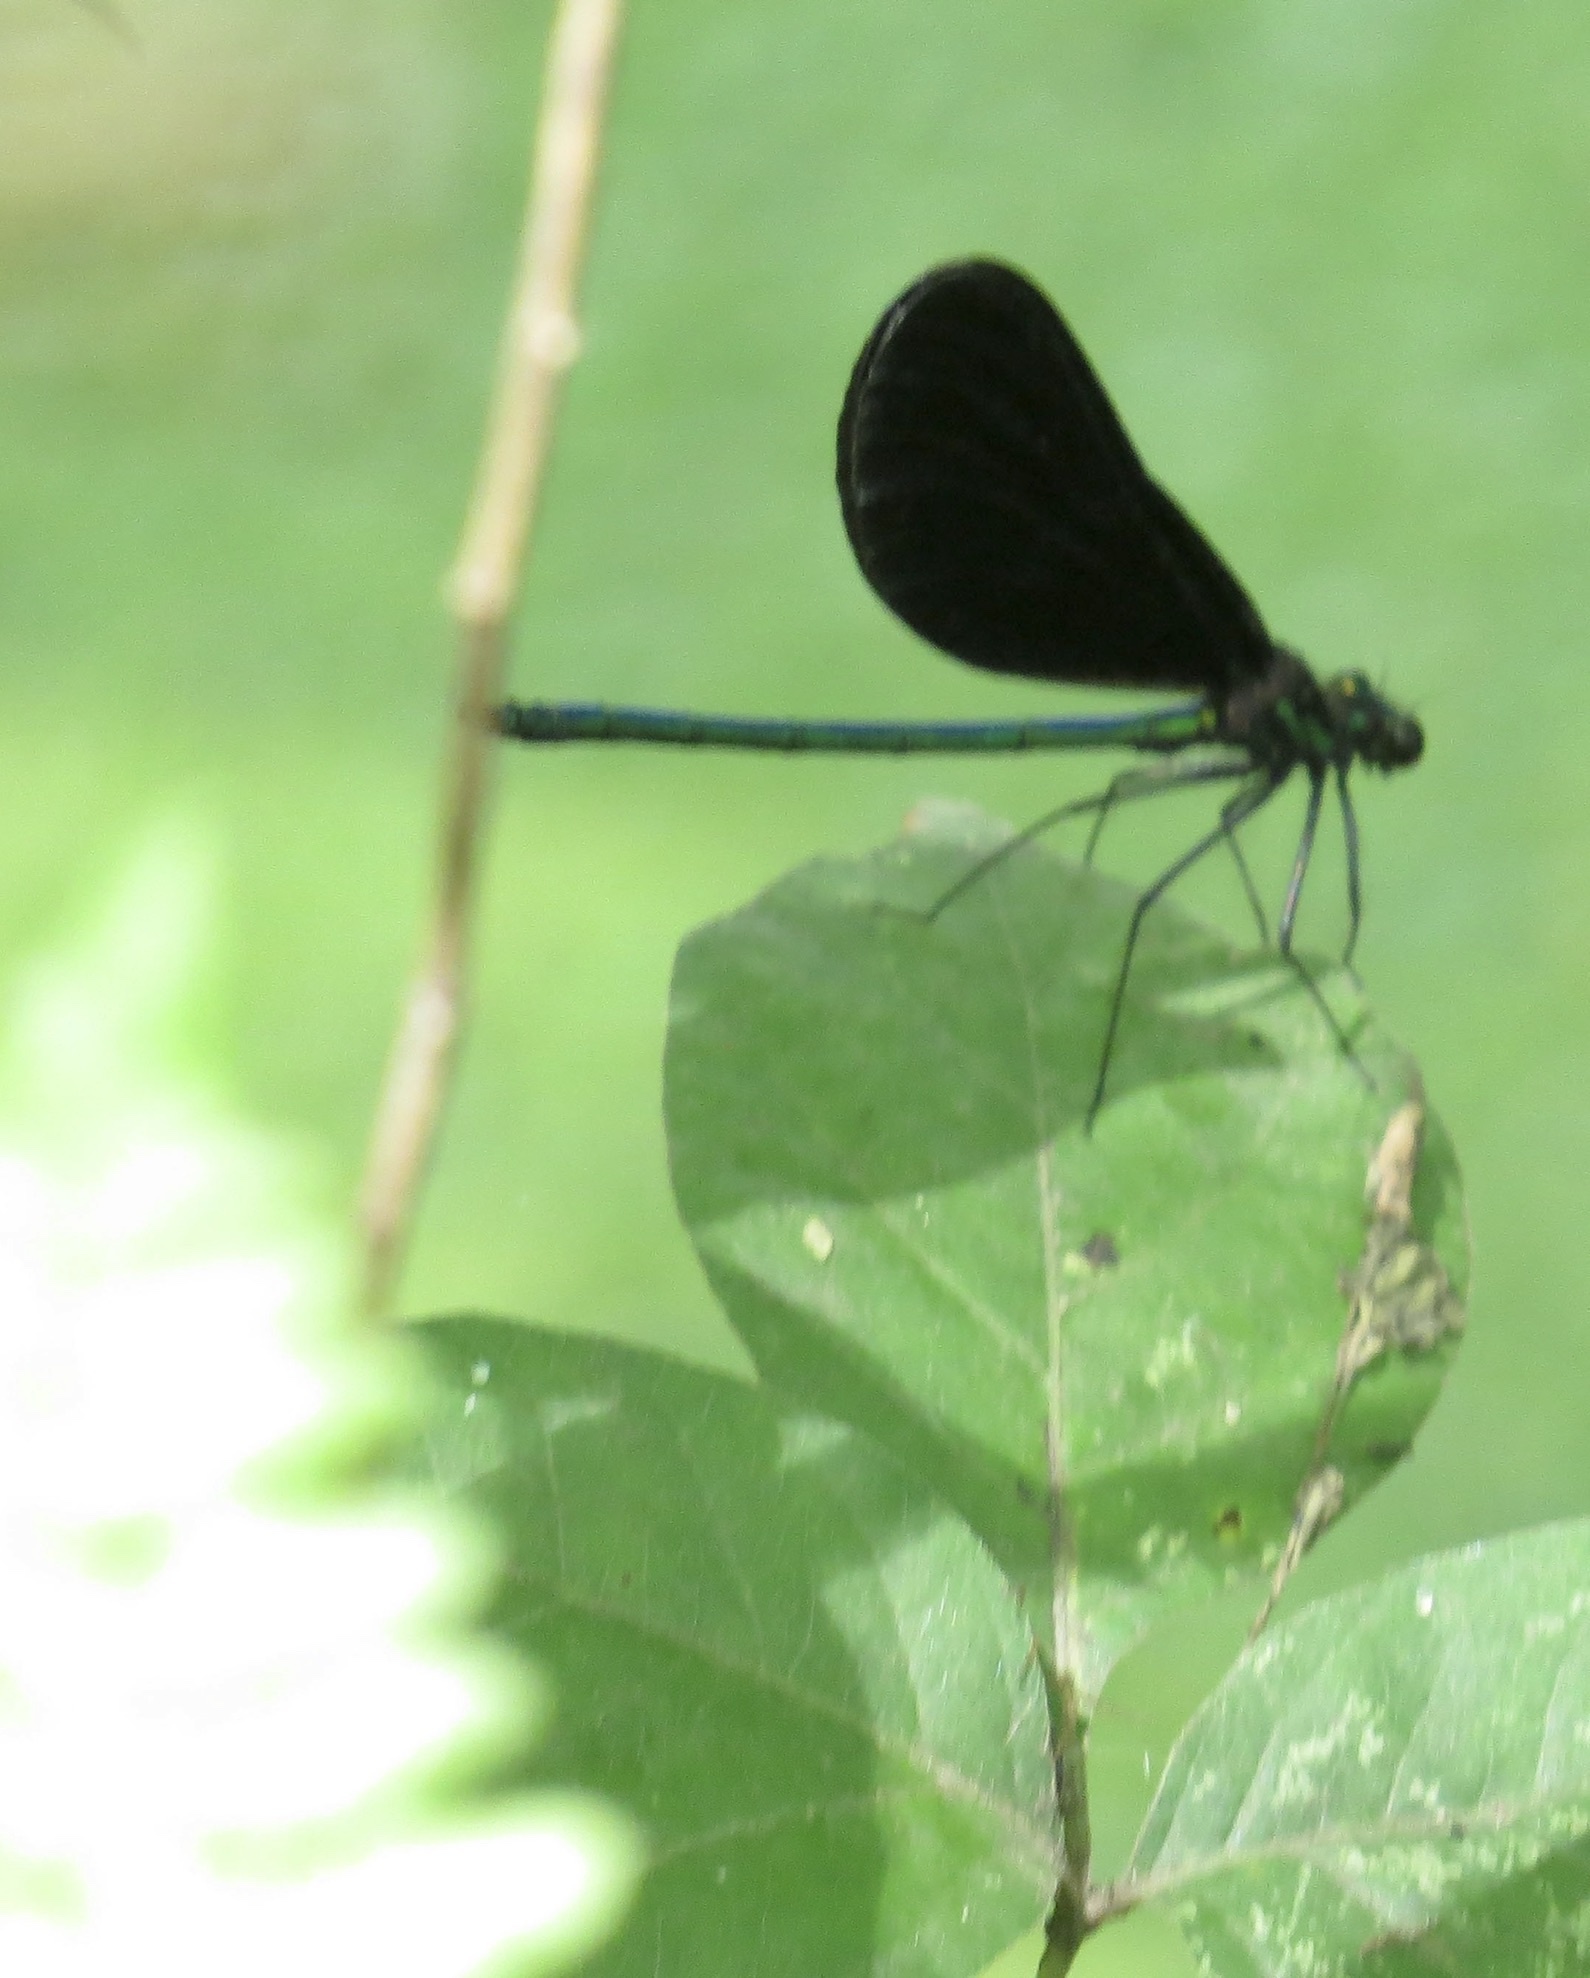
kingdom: Animalia
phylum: Arthropoda
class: Insecta
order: Odonata
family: Calopterygidae
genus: Calopteryx
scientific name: Calopteryx maculata
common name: Ebony jewelwing
